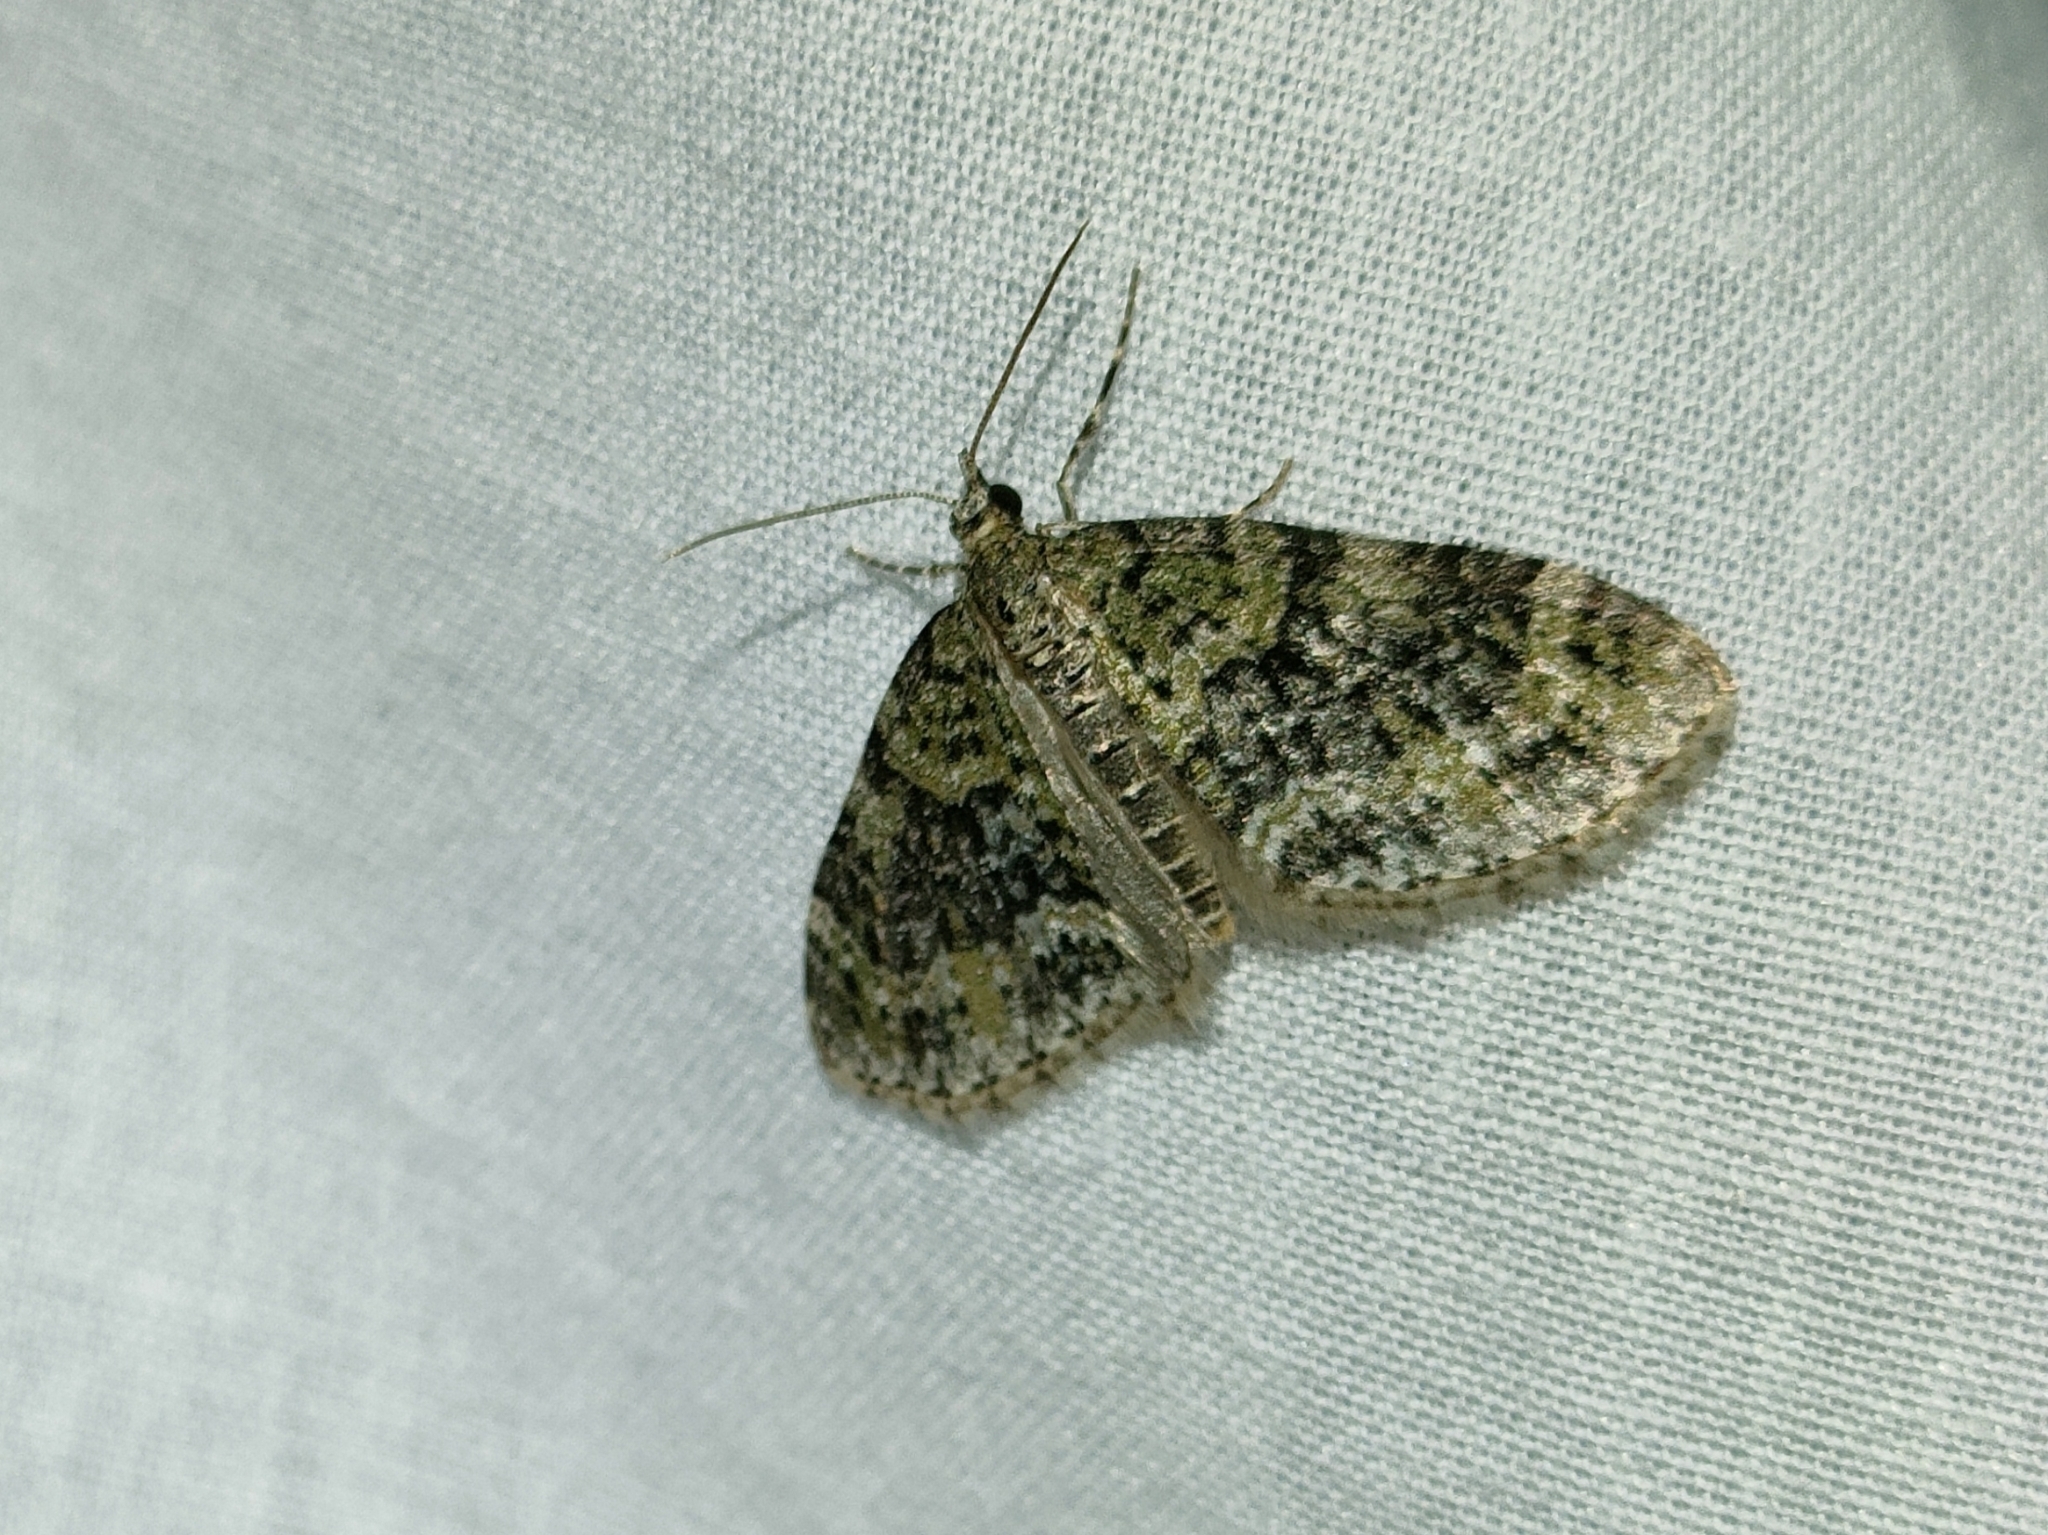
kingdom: Animalia
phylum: Arthropoda
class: Insecta
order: Lepidoptera
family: Geometridae
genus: Acasis
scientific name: Acasis viretata
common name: Yellow-barred brindle
